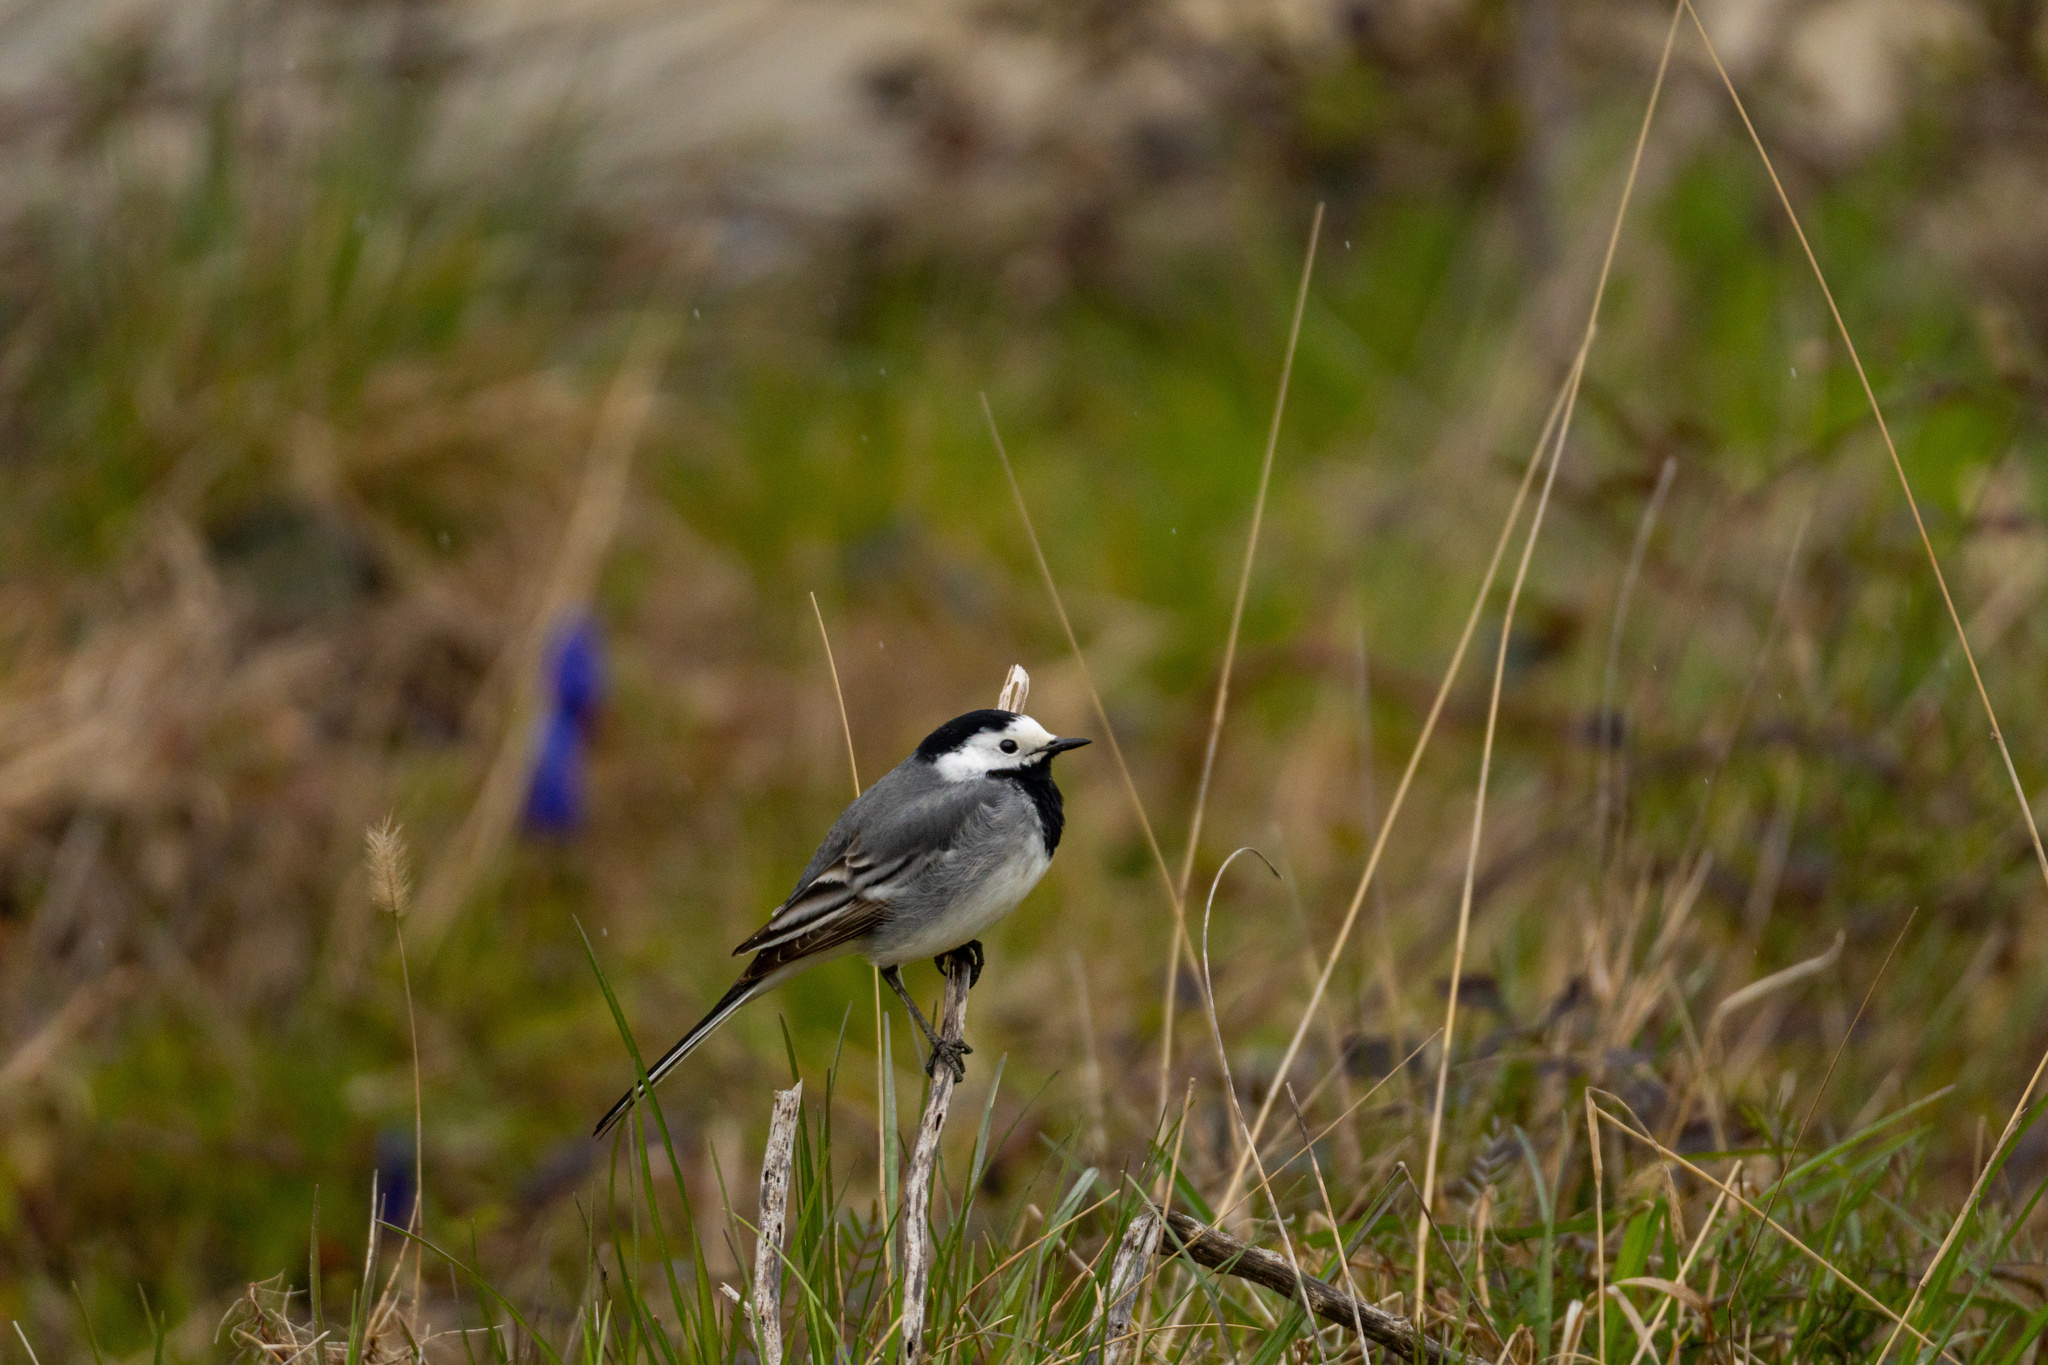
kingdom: Animalia
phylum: Chordata
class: Aves
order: Passeriformes
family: Motacillidae
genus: Motacilla
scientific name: Motacilla alba
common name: White wagtail
